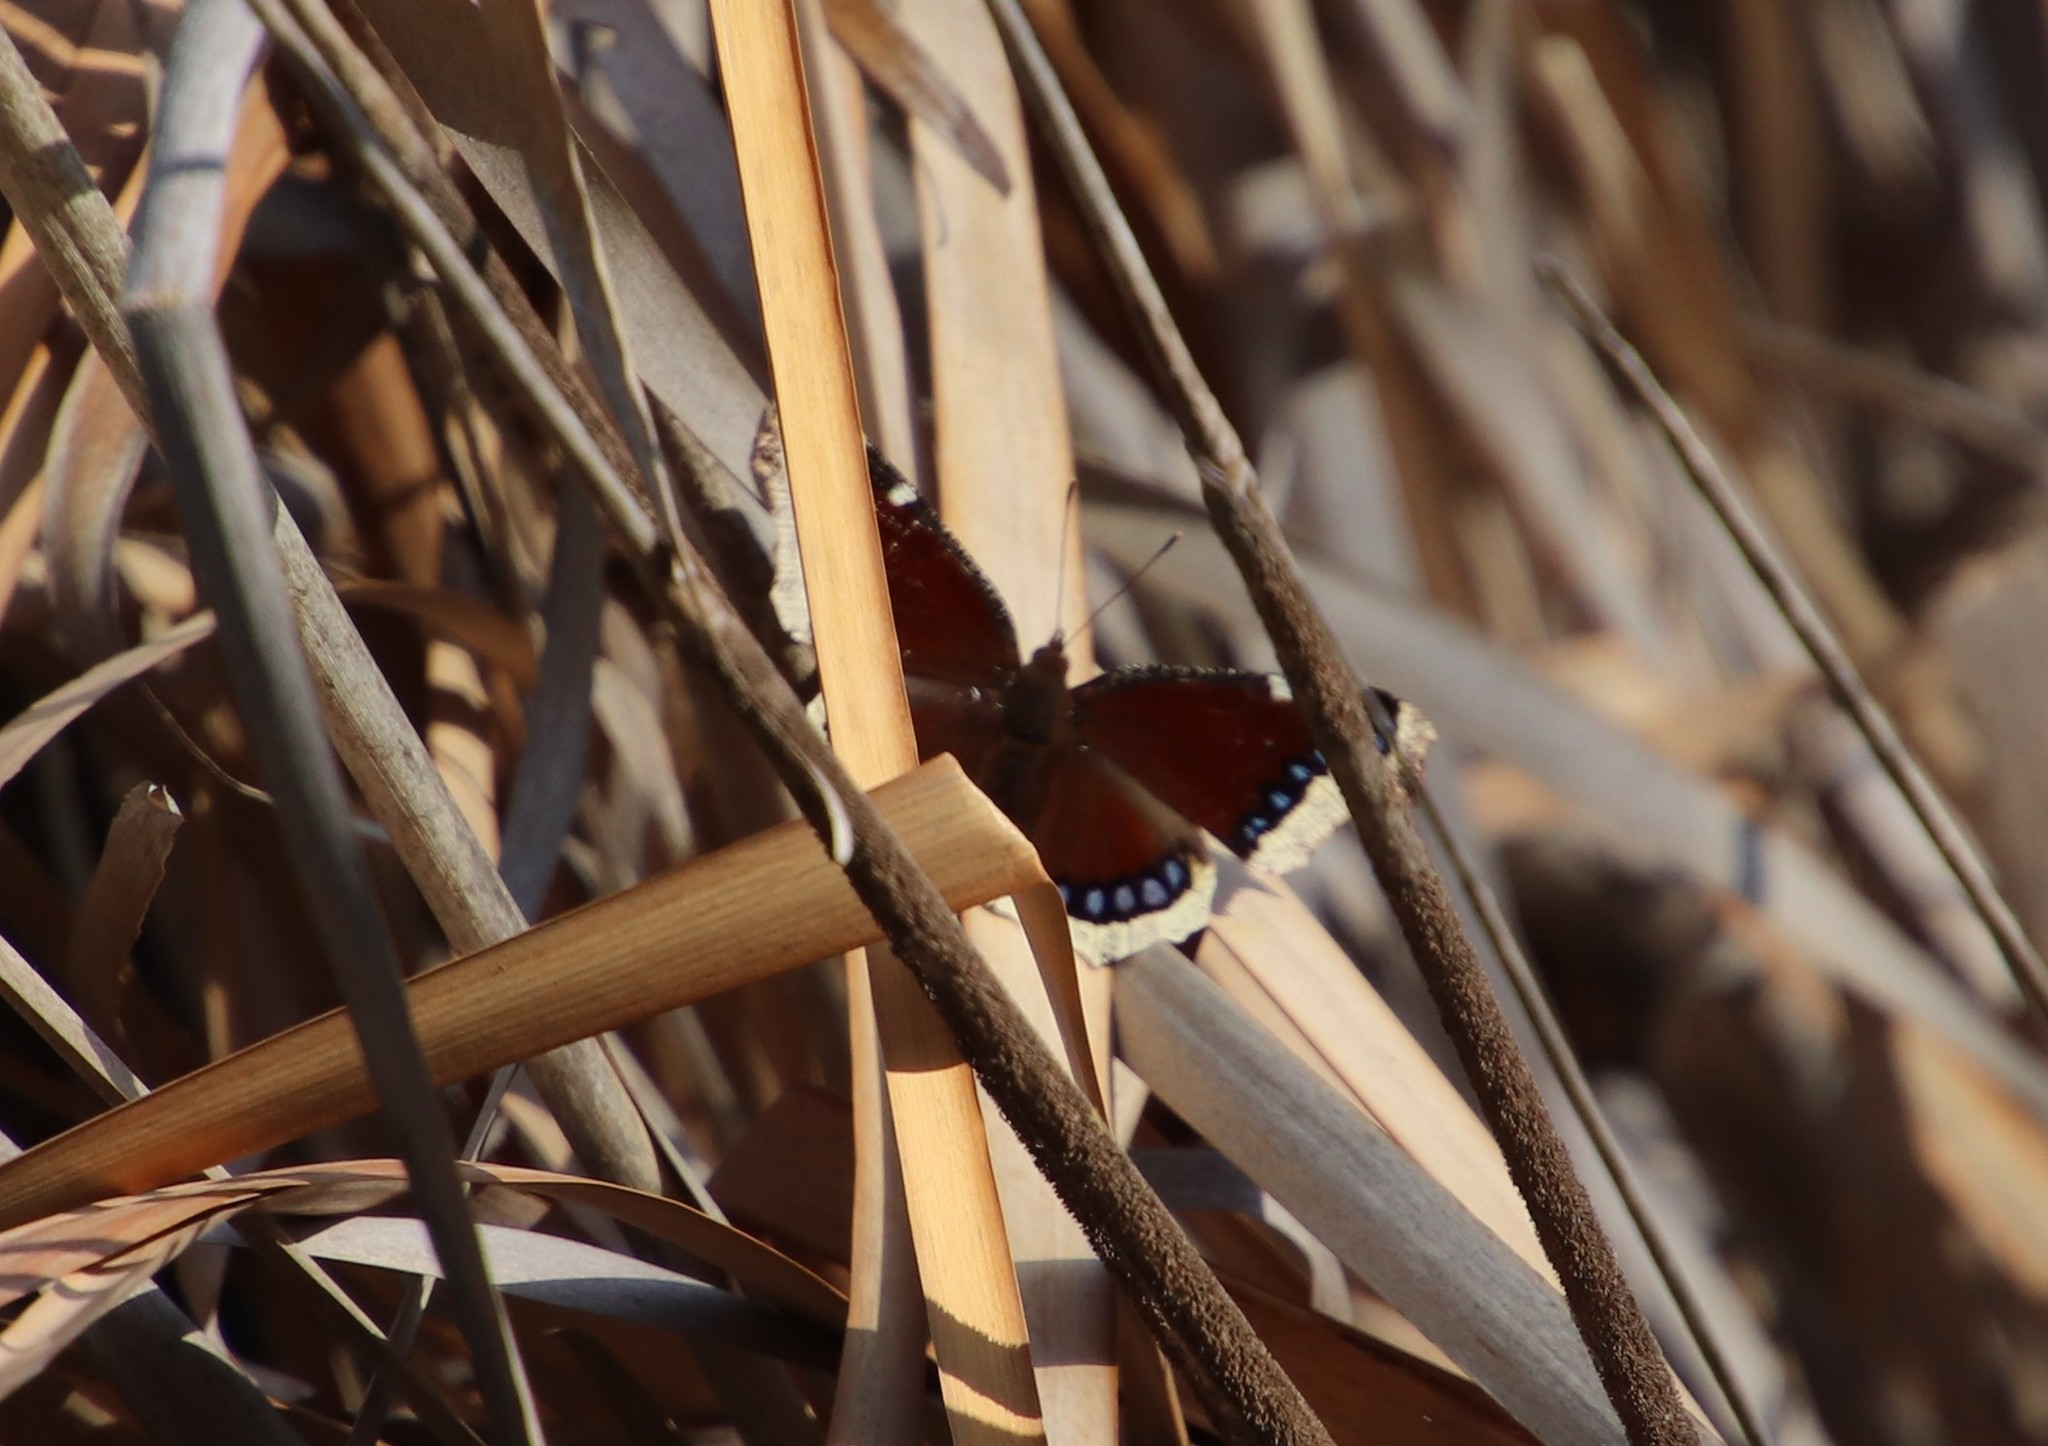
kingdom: Animalia
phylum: Arthropoda
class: Insecta
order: Lepidoptera
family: Nymphalidae
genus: Nymphalis
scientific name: Nymphalis antiopa
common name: Camberwell beauty
